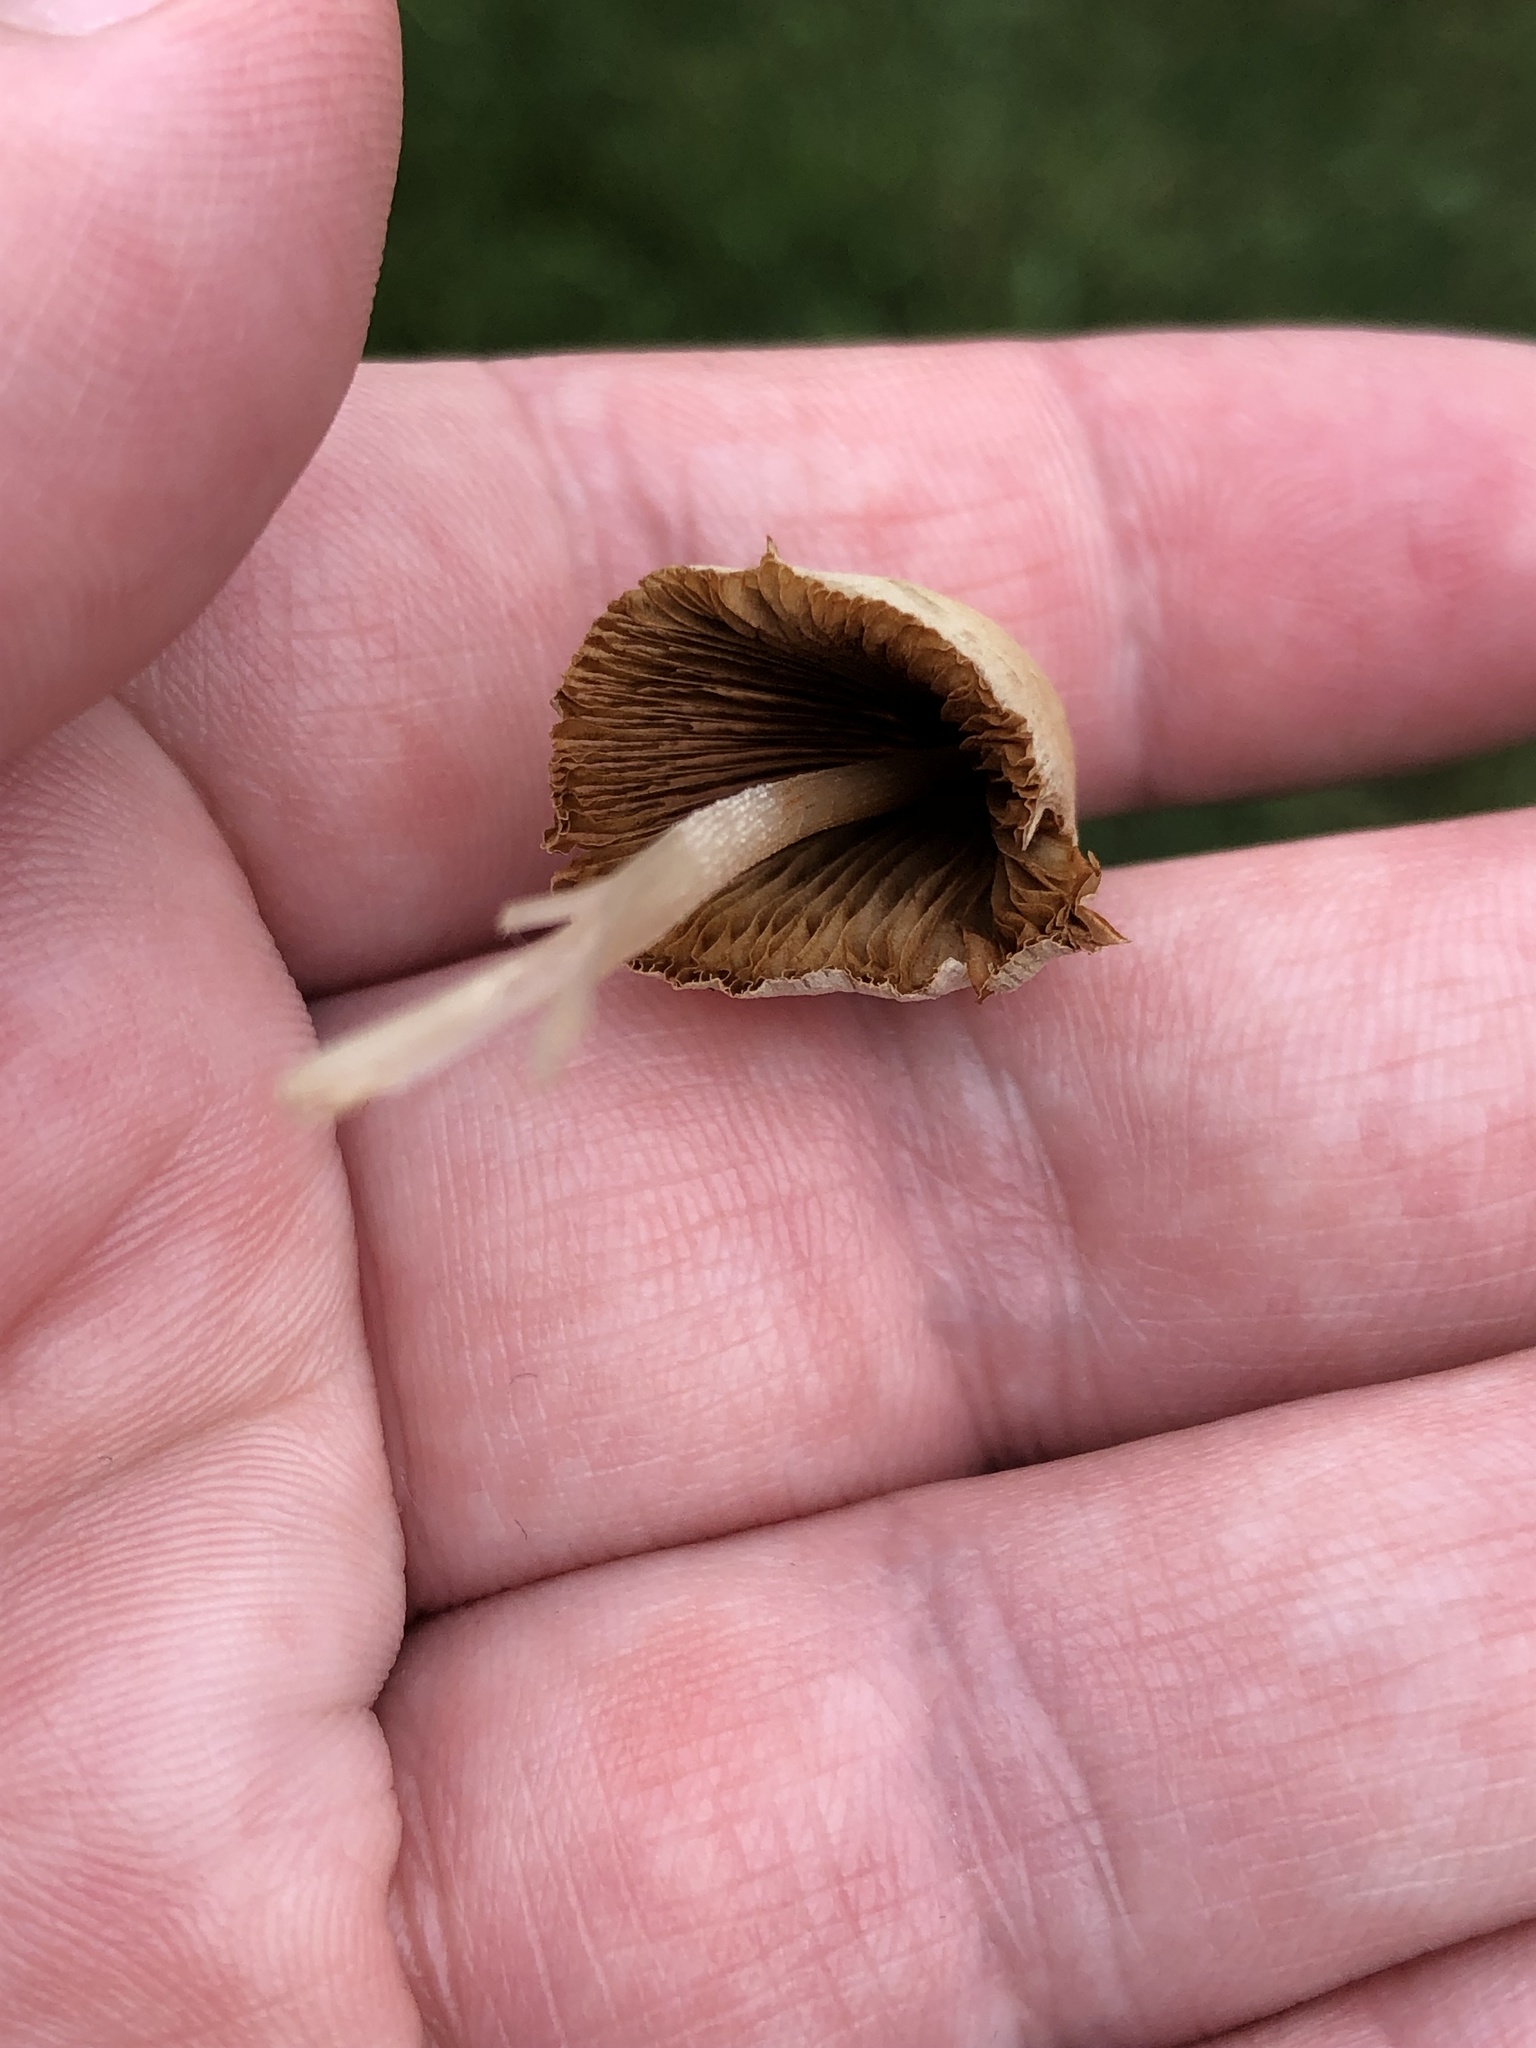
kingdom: Fungi
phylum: Basidiomycota
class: Agaricomycetes
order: Agaricales
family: Bolbitiaceae
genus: Conocybe
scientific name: Conocybe apala
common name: Milky conecap
